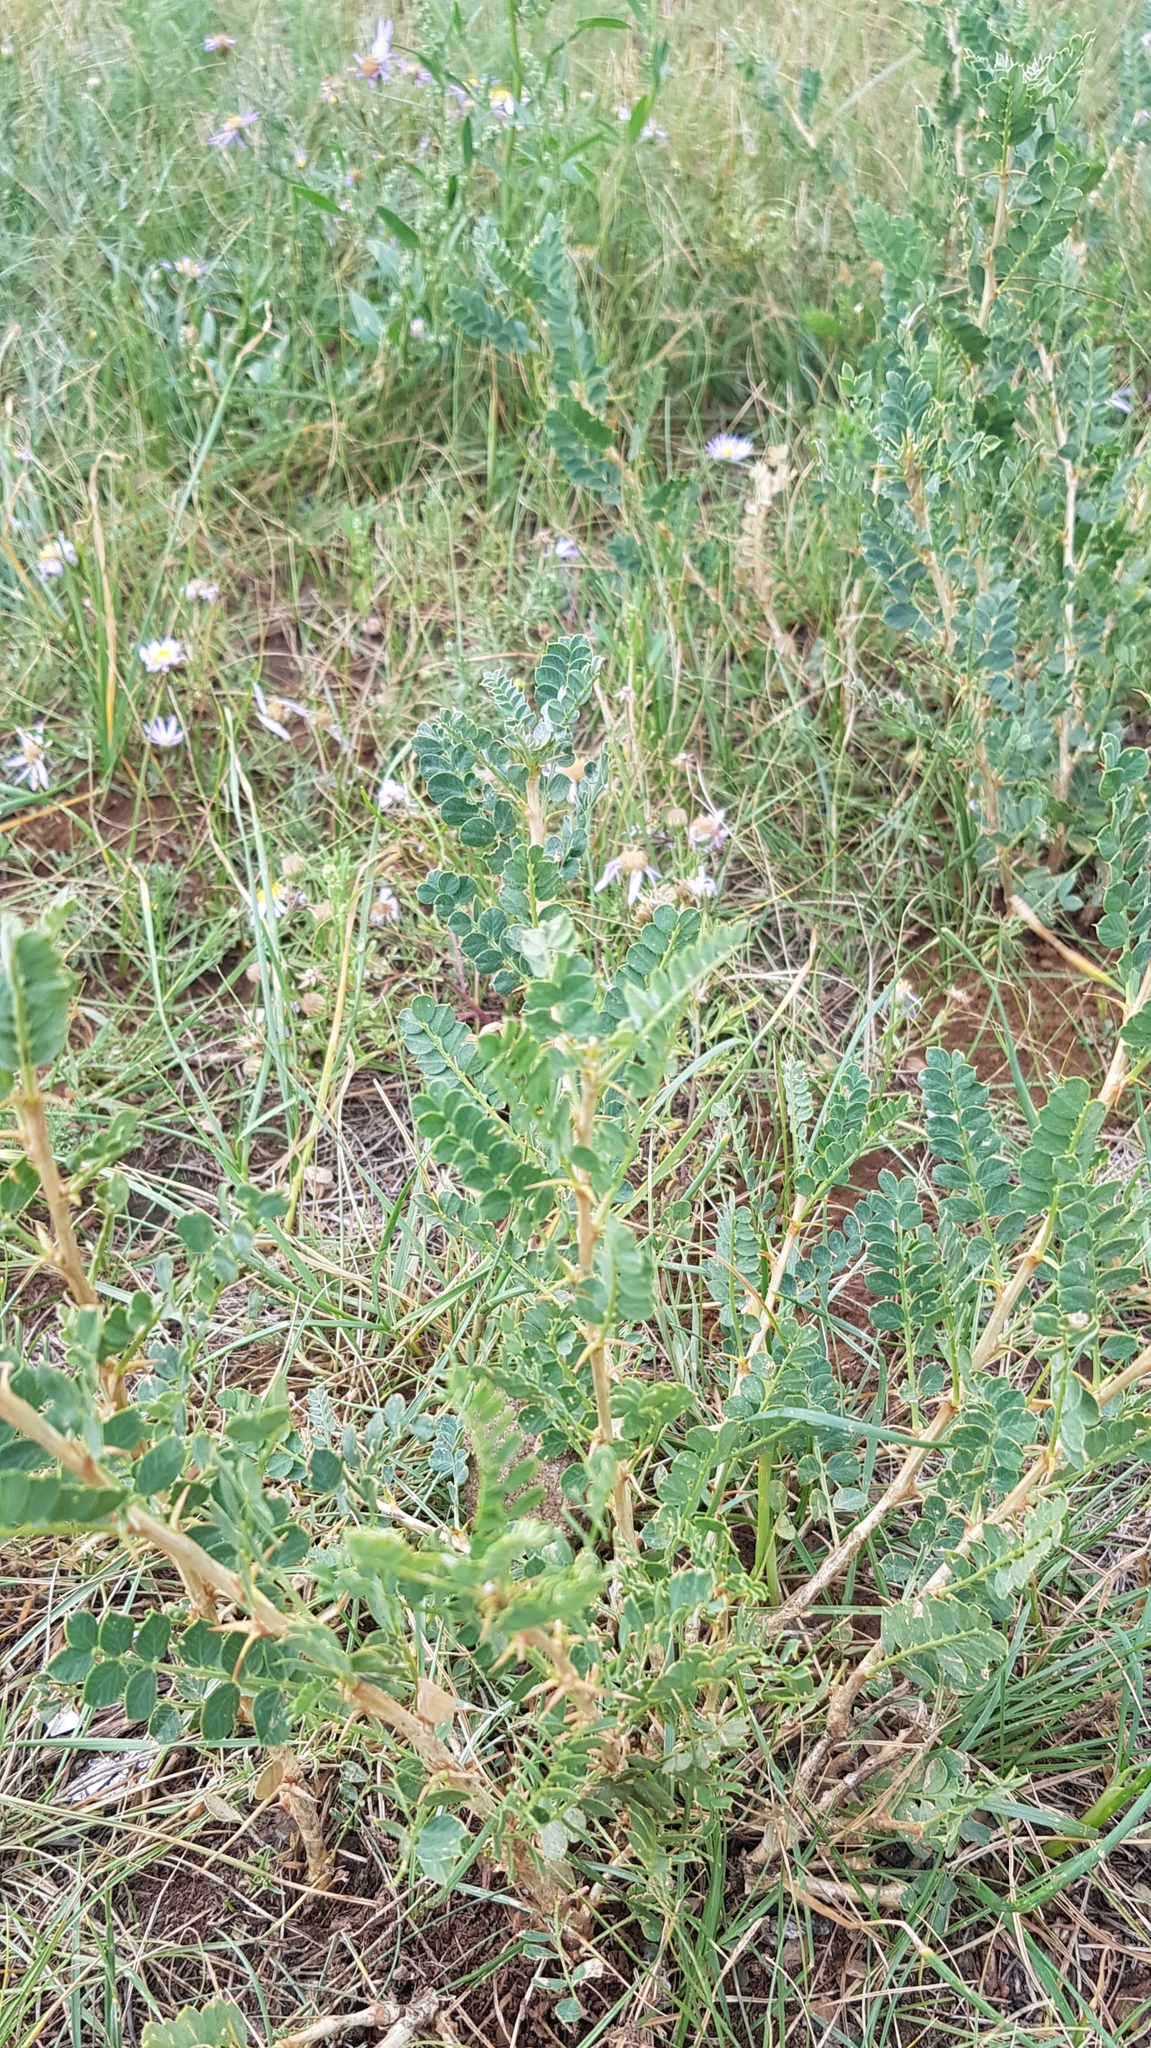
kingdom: Plantae
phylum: Tracheophyta
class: Magnoliopsida
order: Fabales
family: Fabaceae
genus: Caragana
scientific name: Caragana microphylla
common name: Littleleaf peashrub
